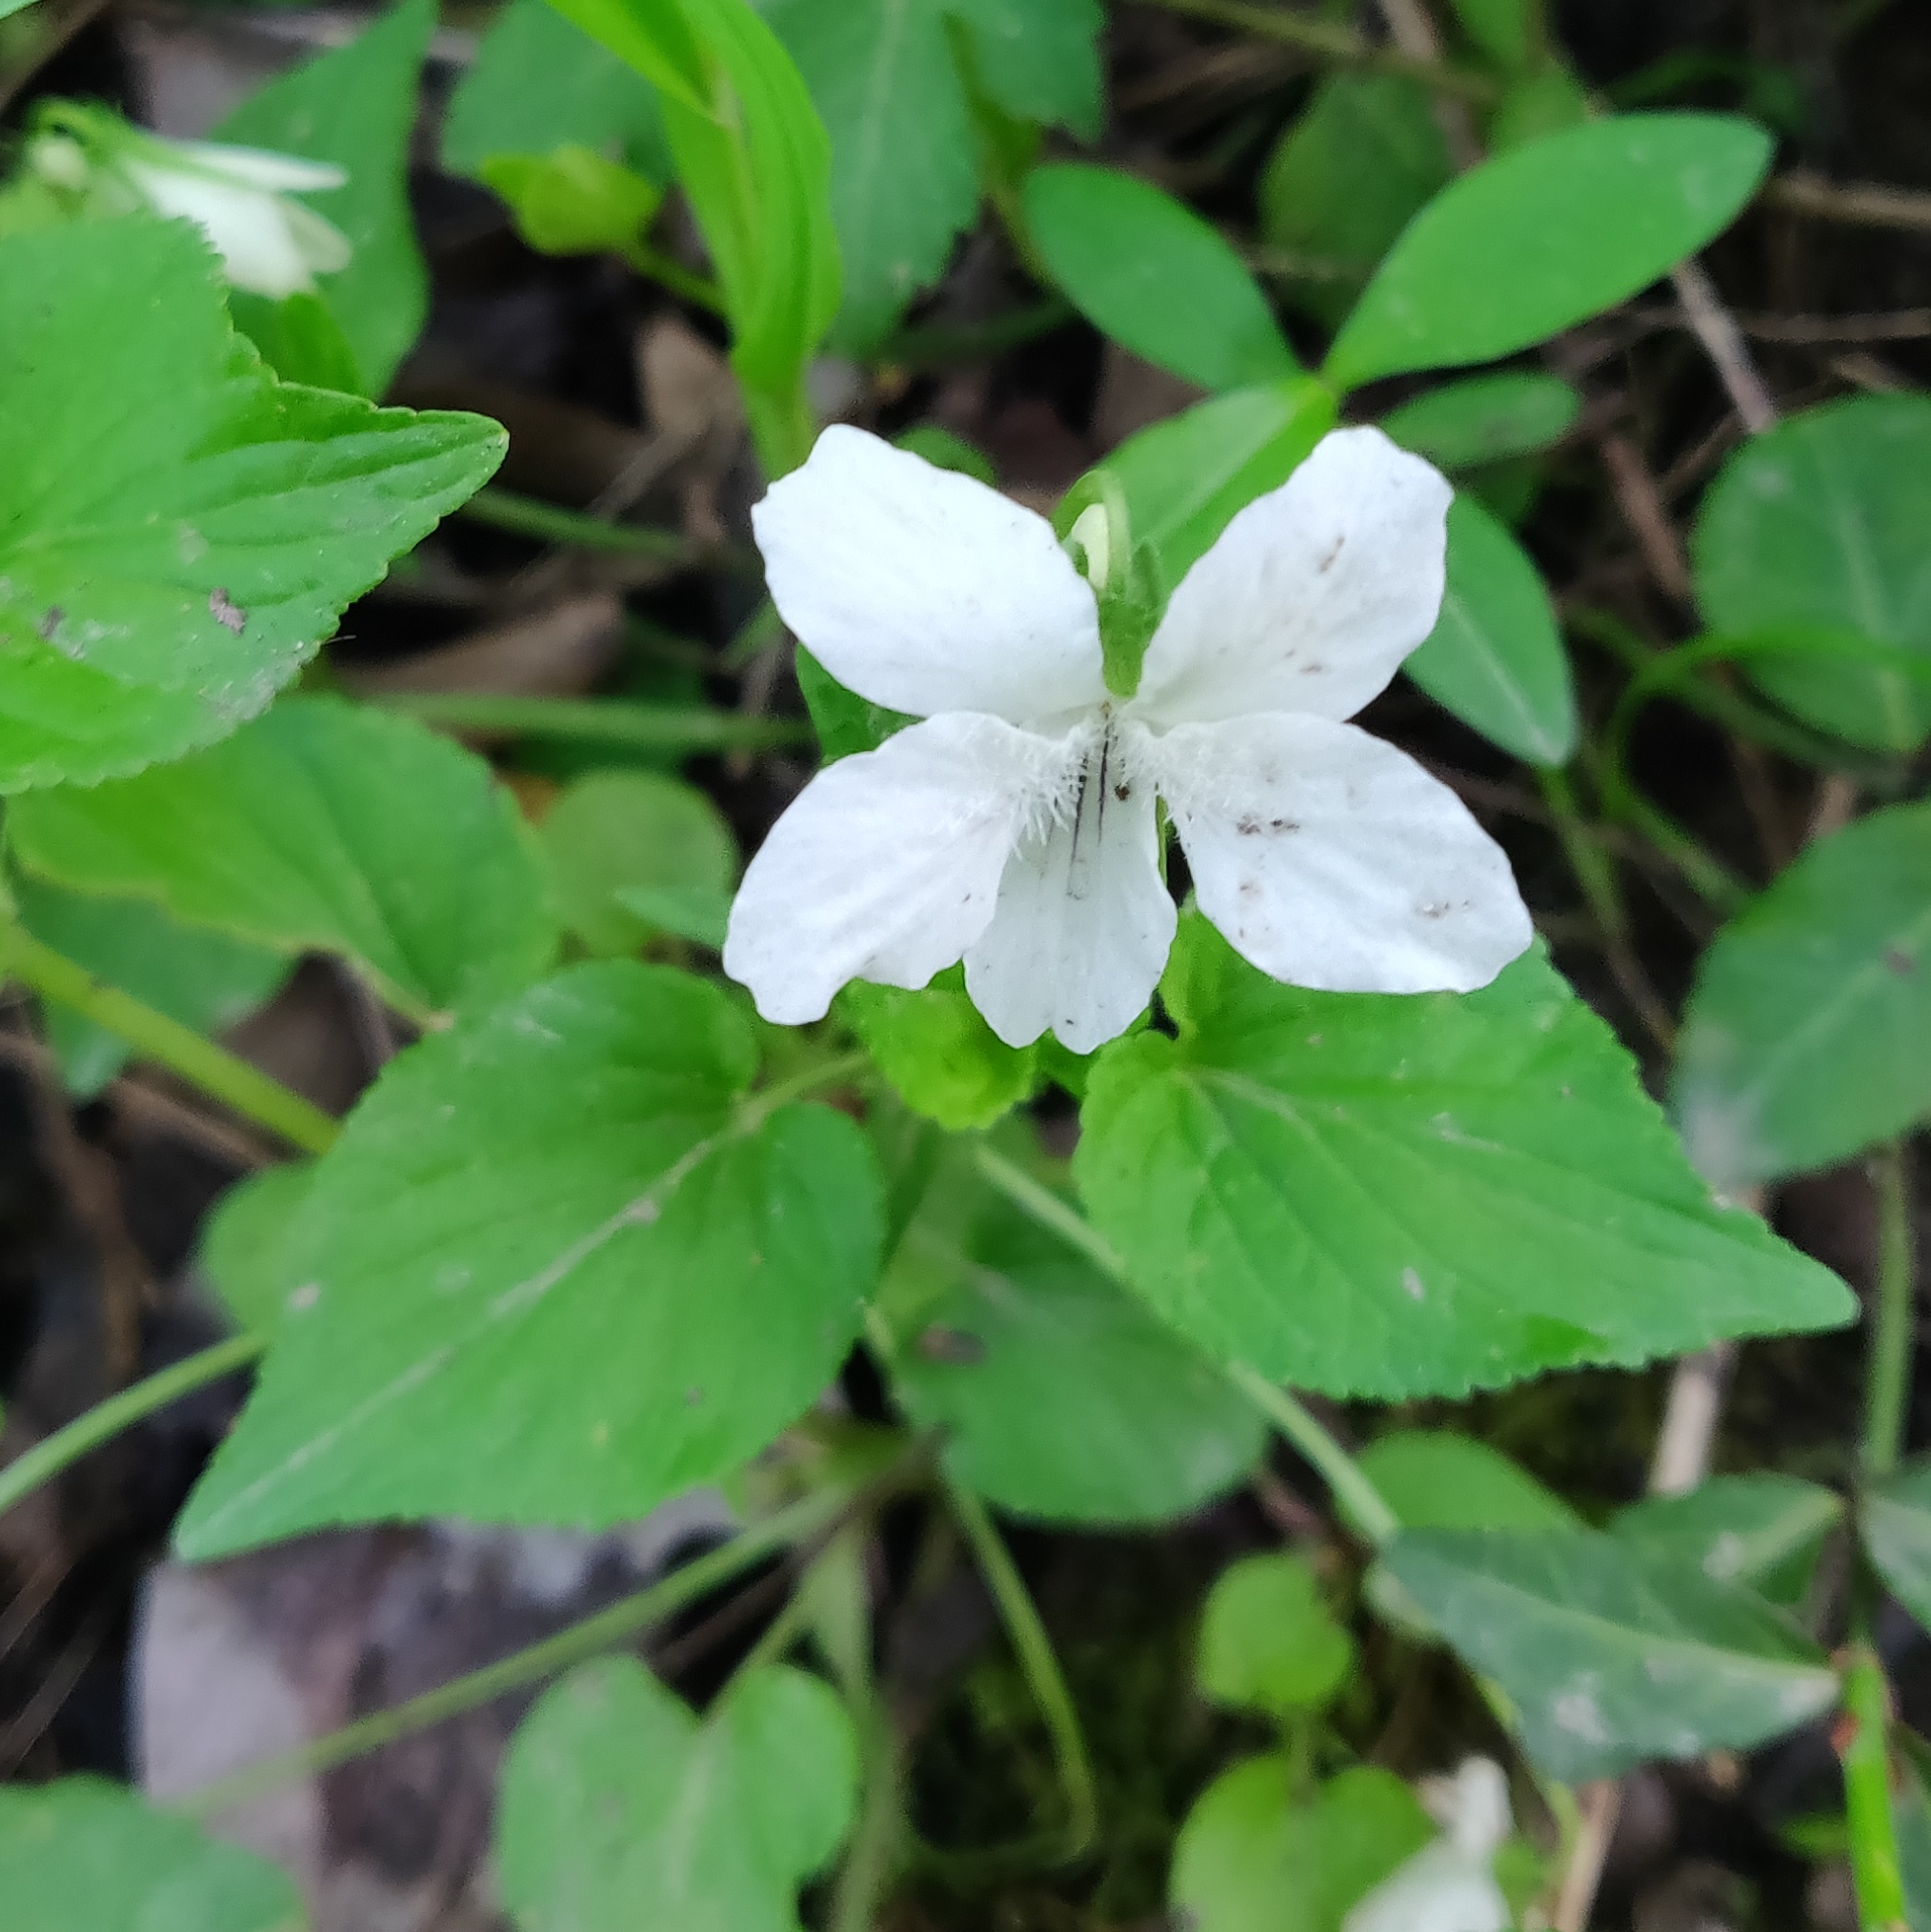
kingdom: Plantae
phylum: Tracheophyta
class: Magnoliopsida
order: Malpighiales
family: Violaceae
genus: Viola
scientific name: Viola striata
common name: Cream violet
